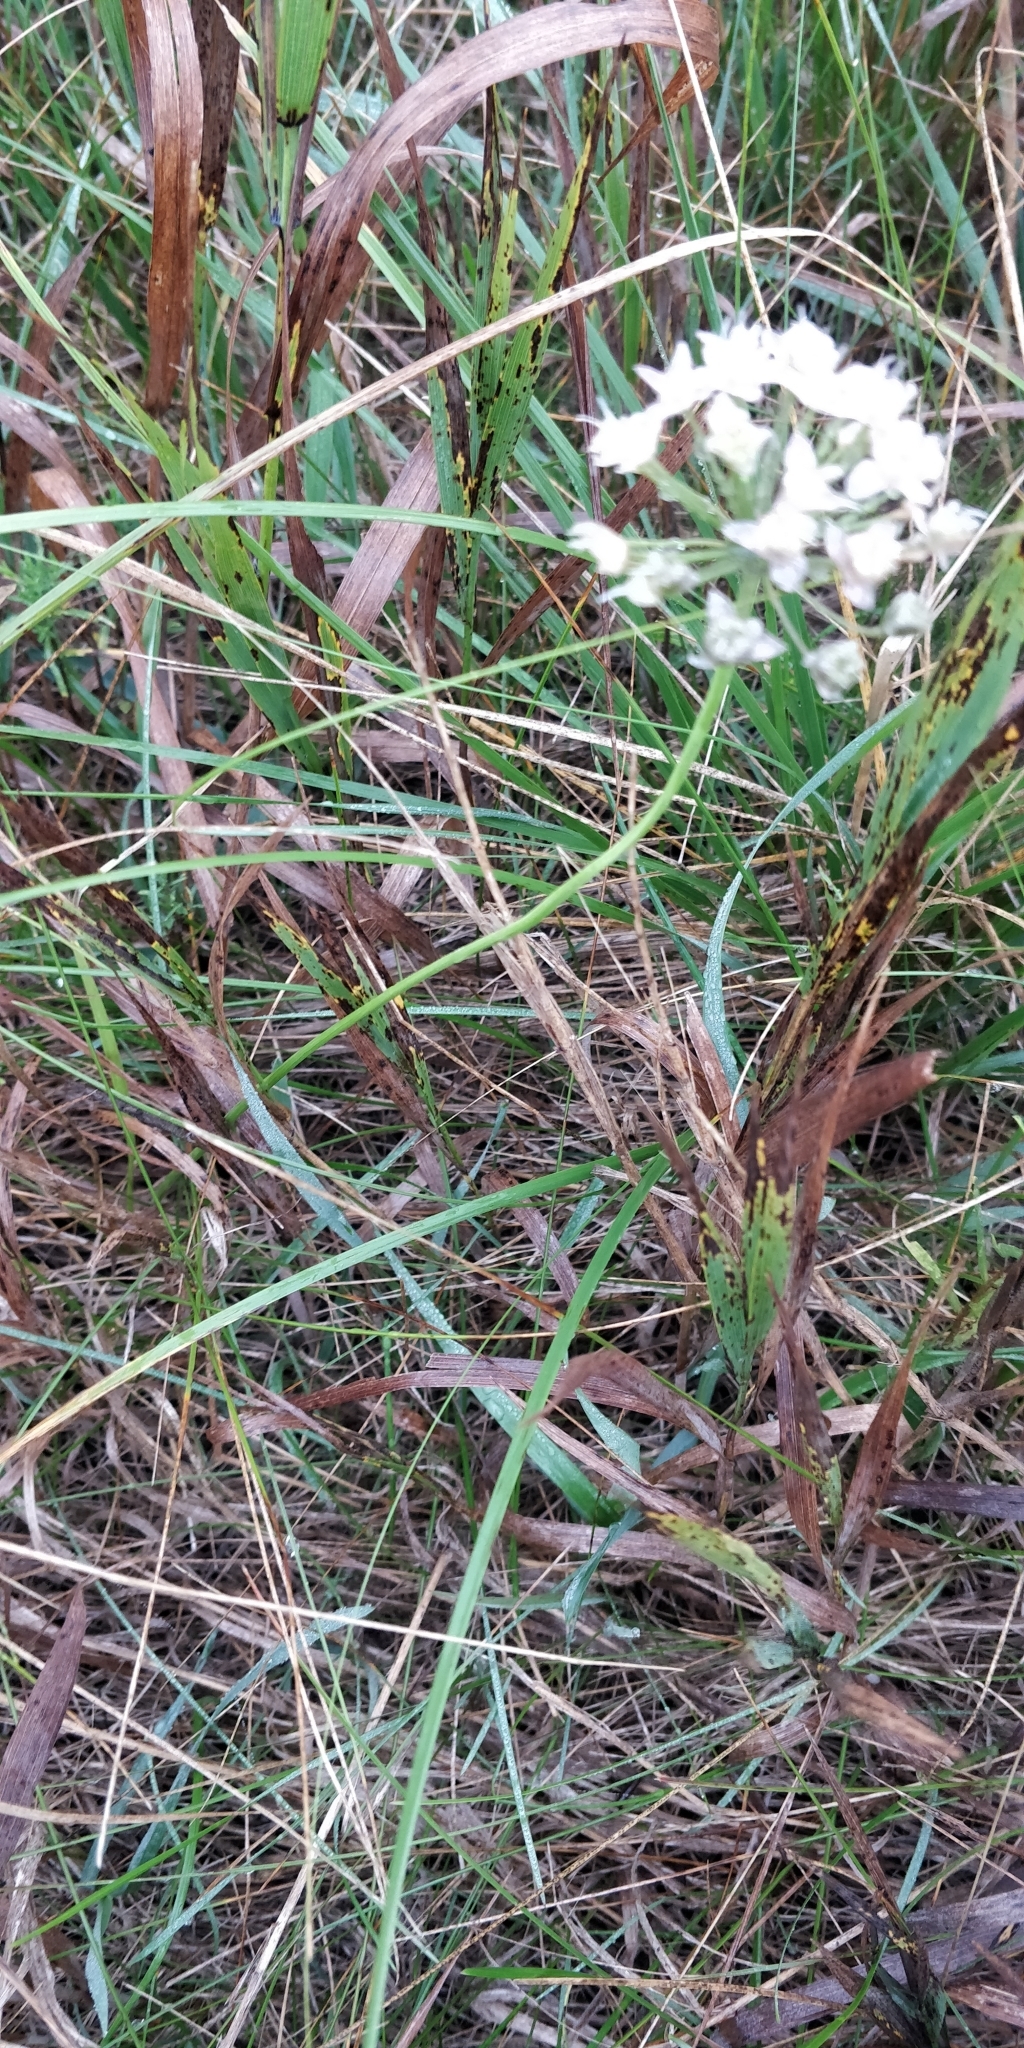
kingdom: Plantae
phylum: Tracheophyta
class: Liliopsida
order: Asparagales
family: Amaryllidaceae
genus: Allium
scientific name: Allium stellatum
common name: Autumn onion
